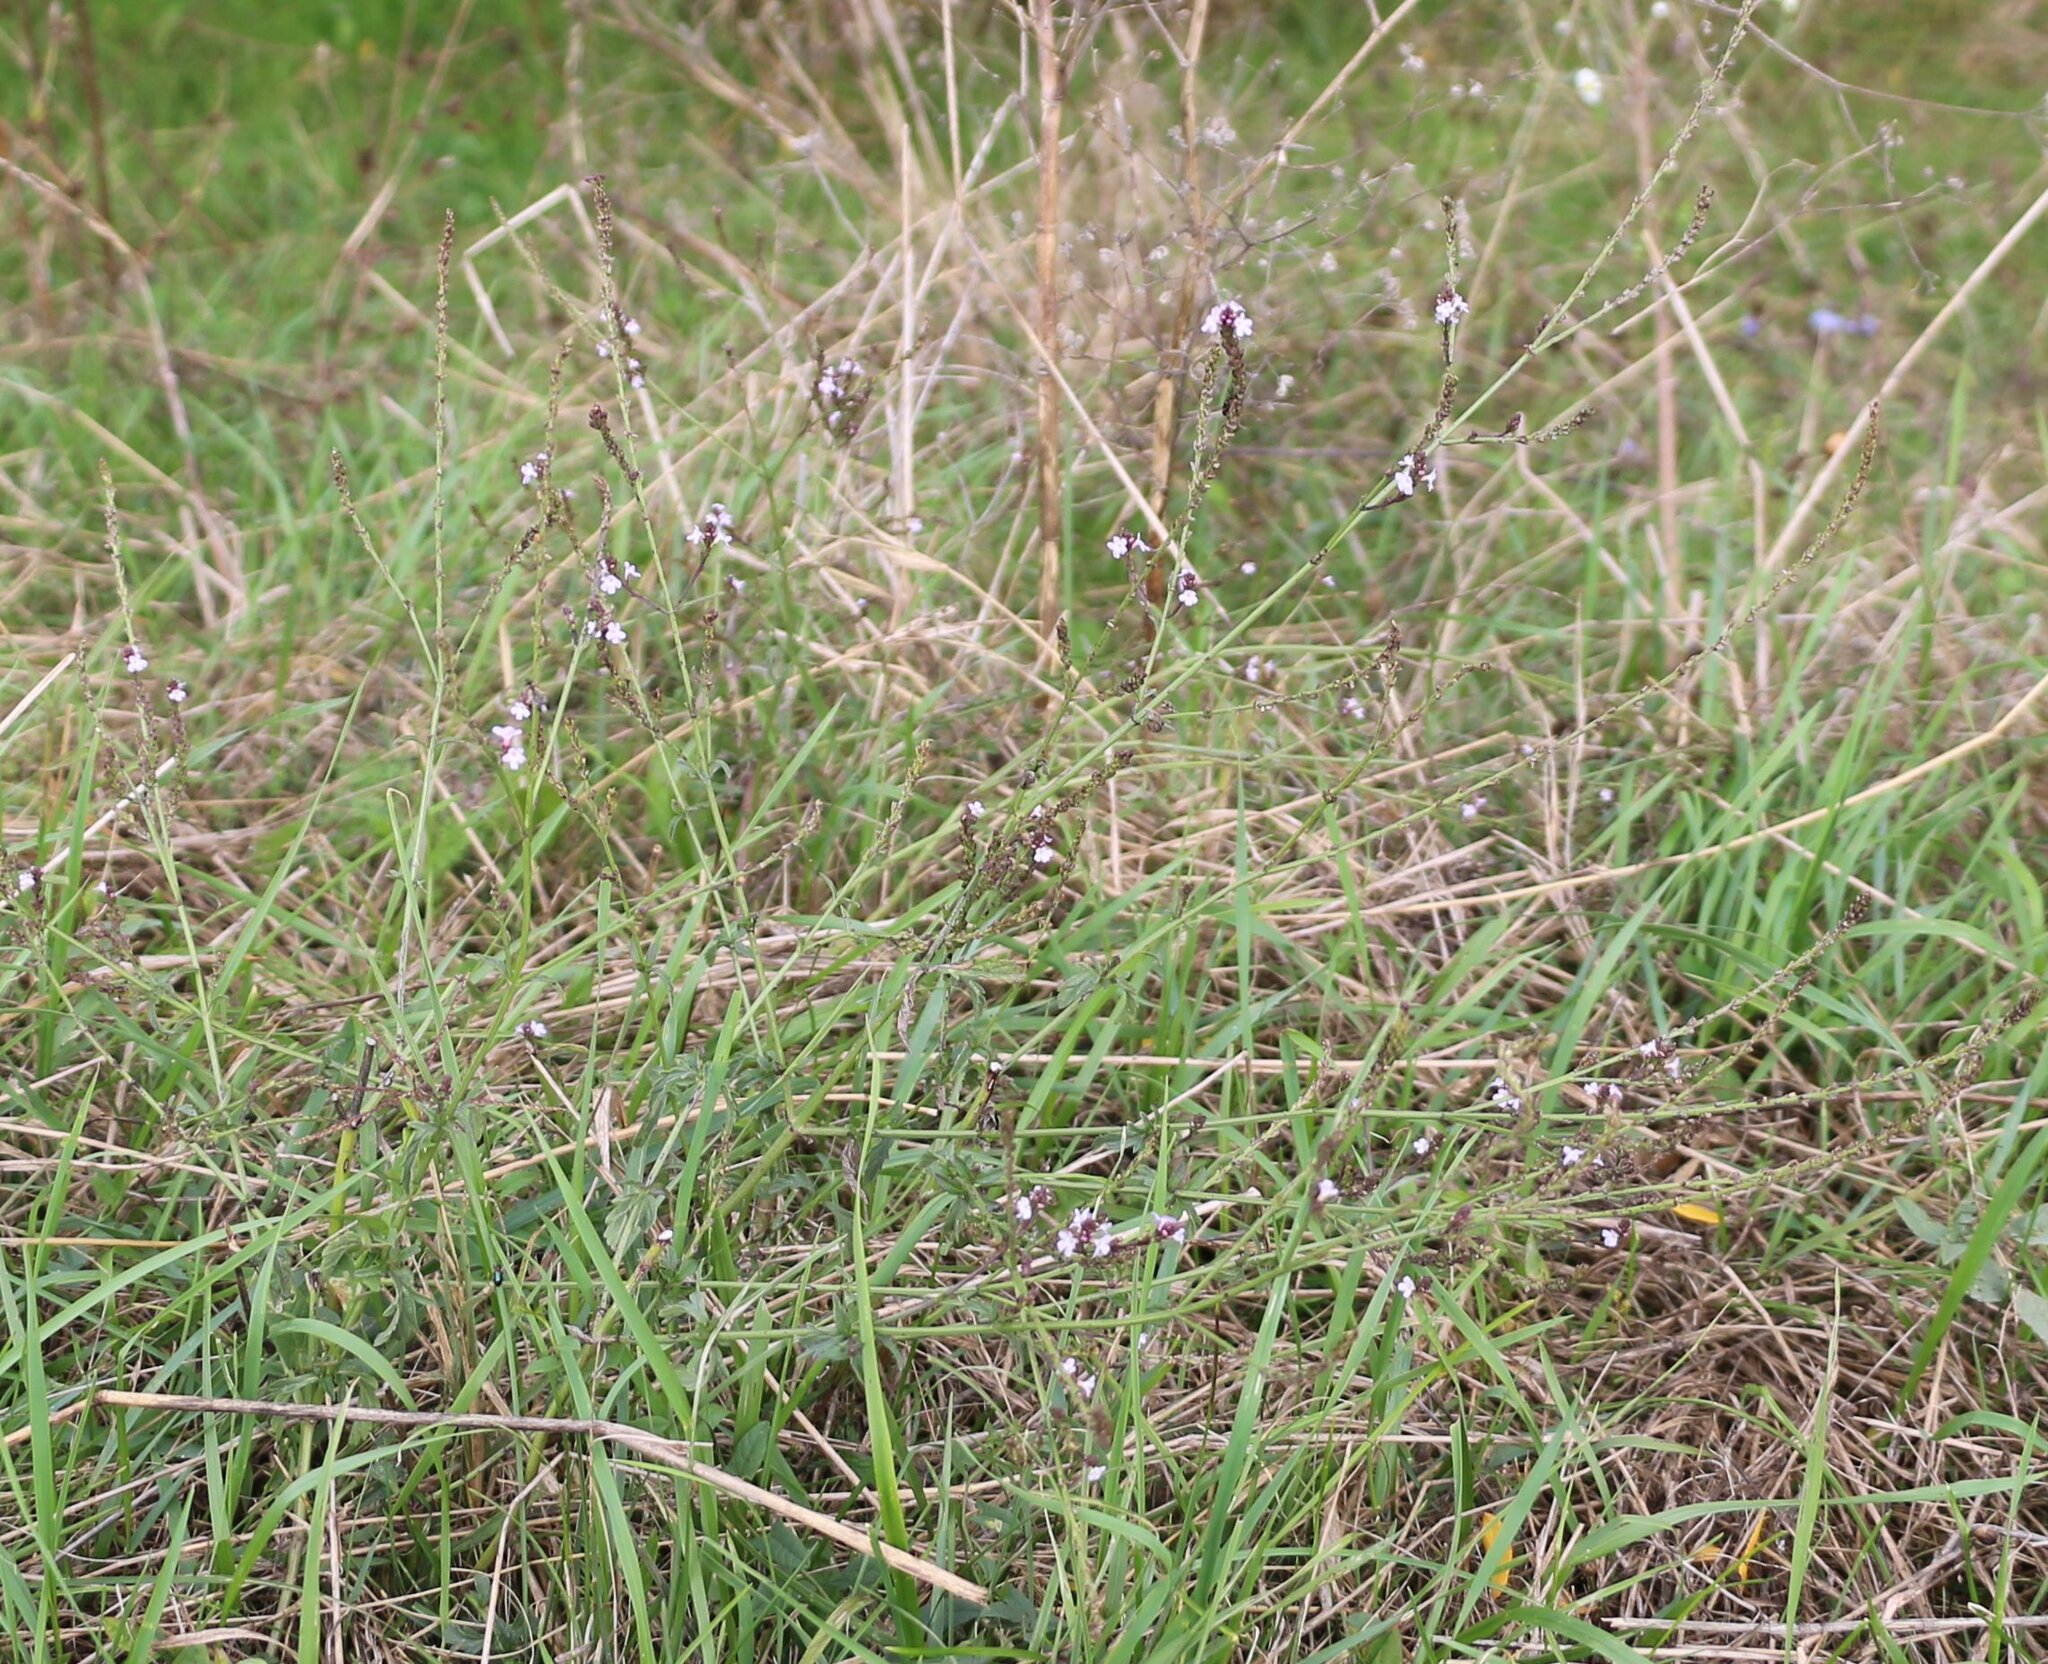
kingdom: Plantae
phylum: Tracheophyta
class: Magnoliopsida
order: Lamiales
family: Verbenaceae
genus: Verbena
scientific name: Verbena officinalis
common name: Vervain
